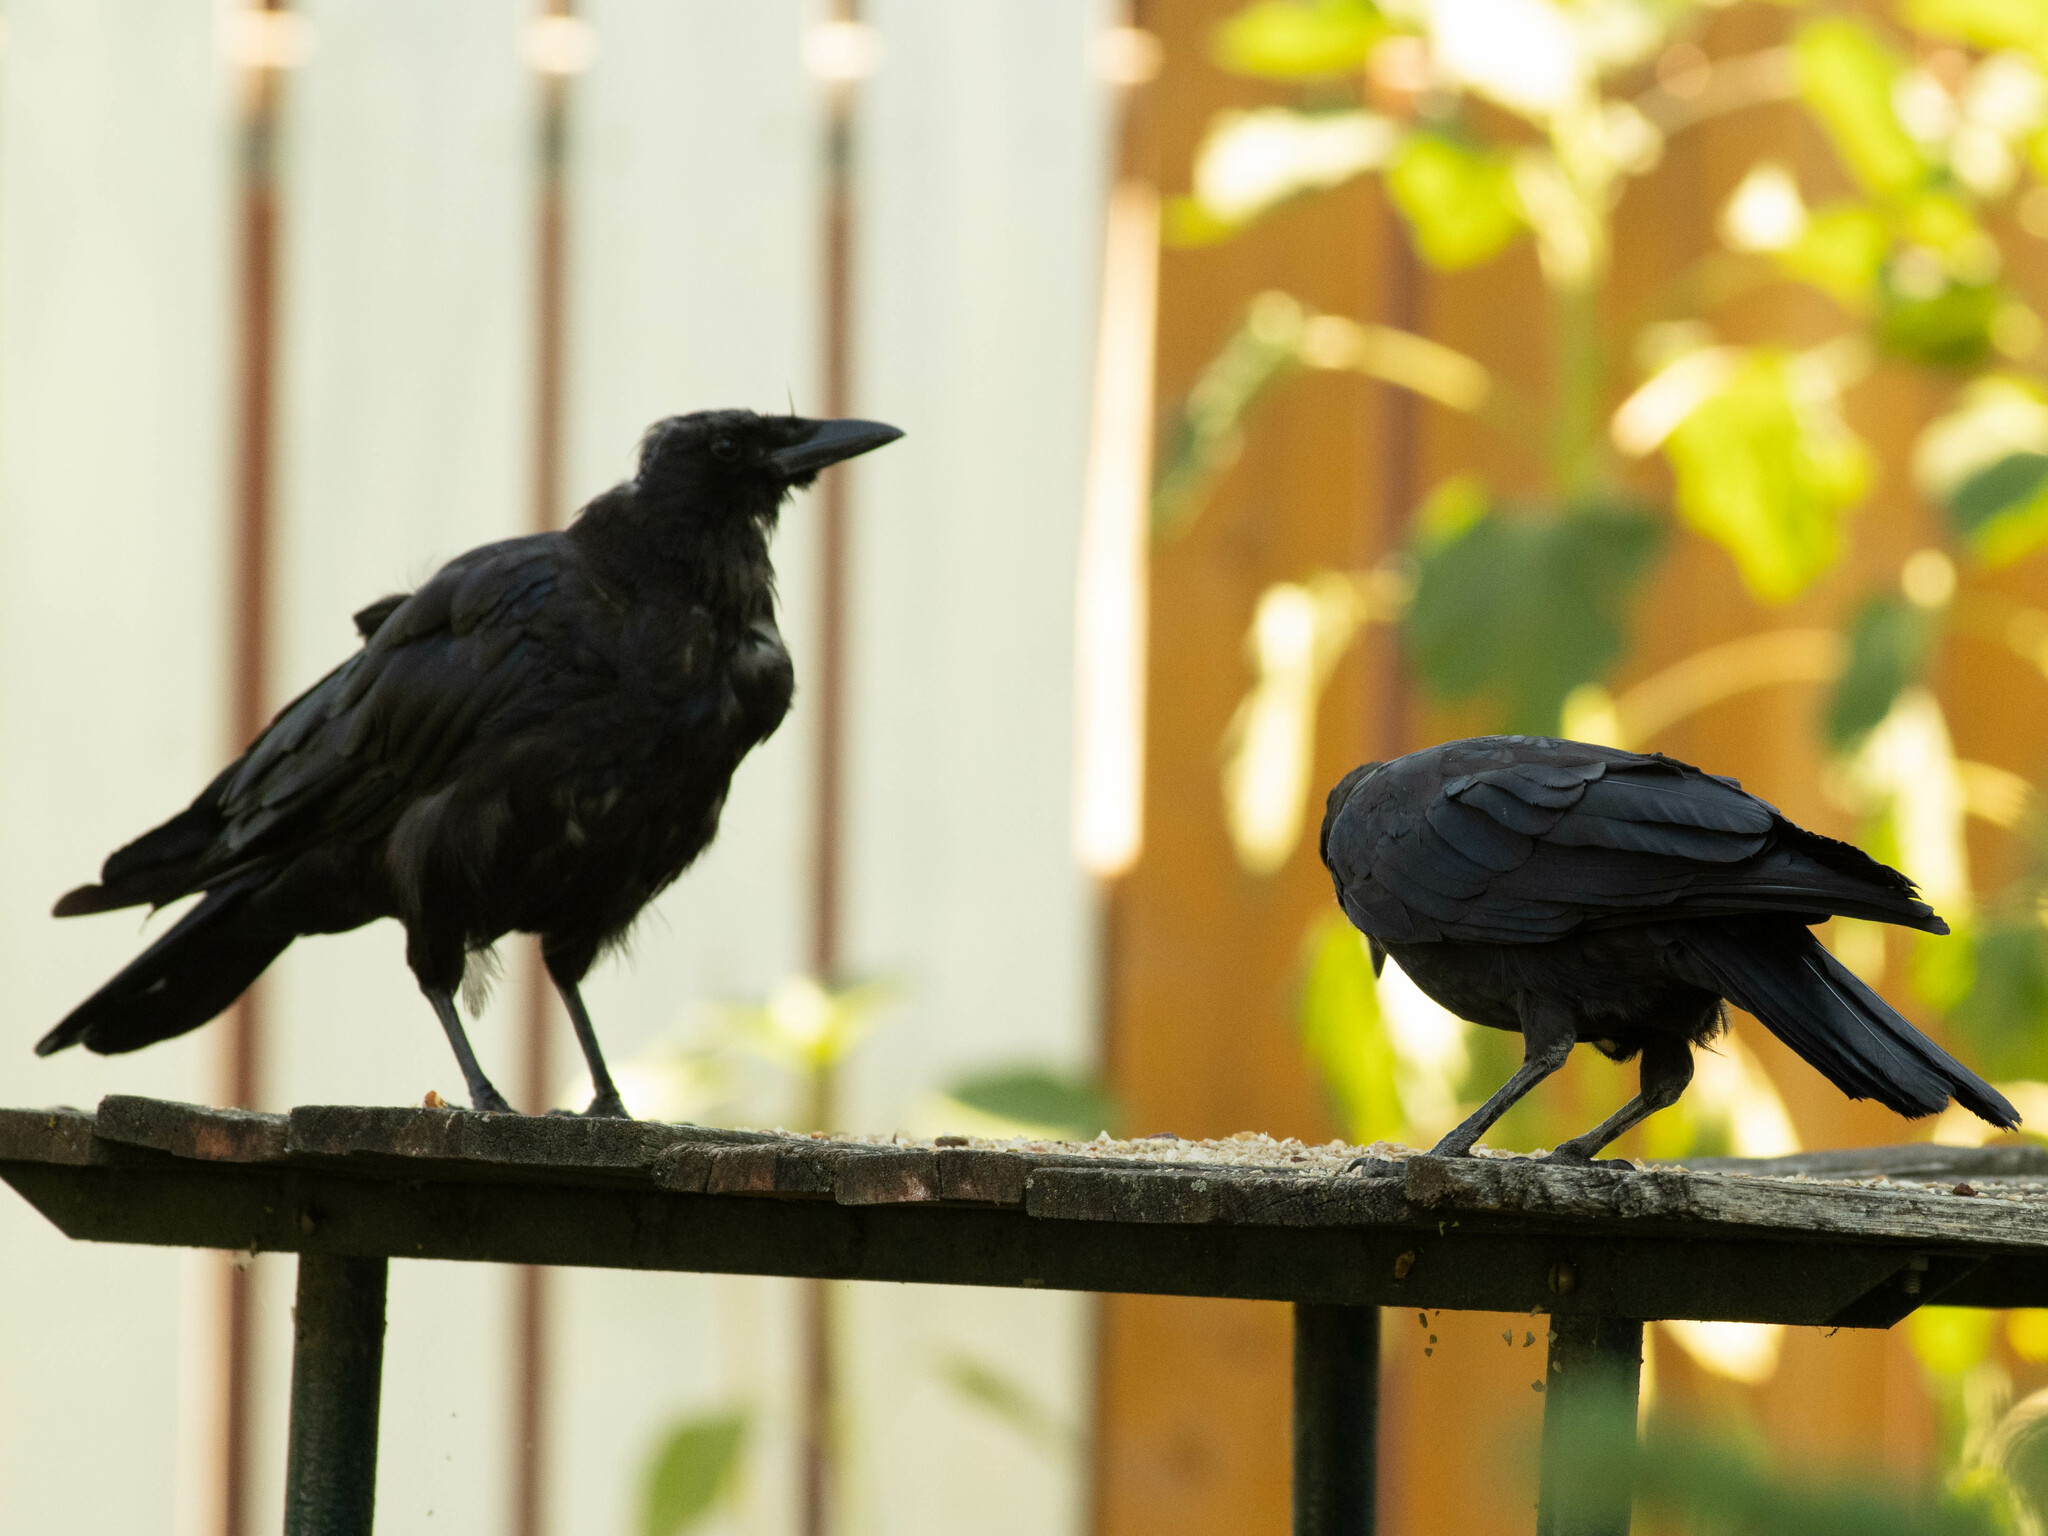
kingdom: Animalia
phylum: Chordata
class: Aves
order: Passeriformes
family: Corvidae
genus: Corvus
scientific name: Corvus brachyrhynchos
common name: American crow
